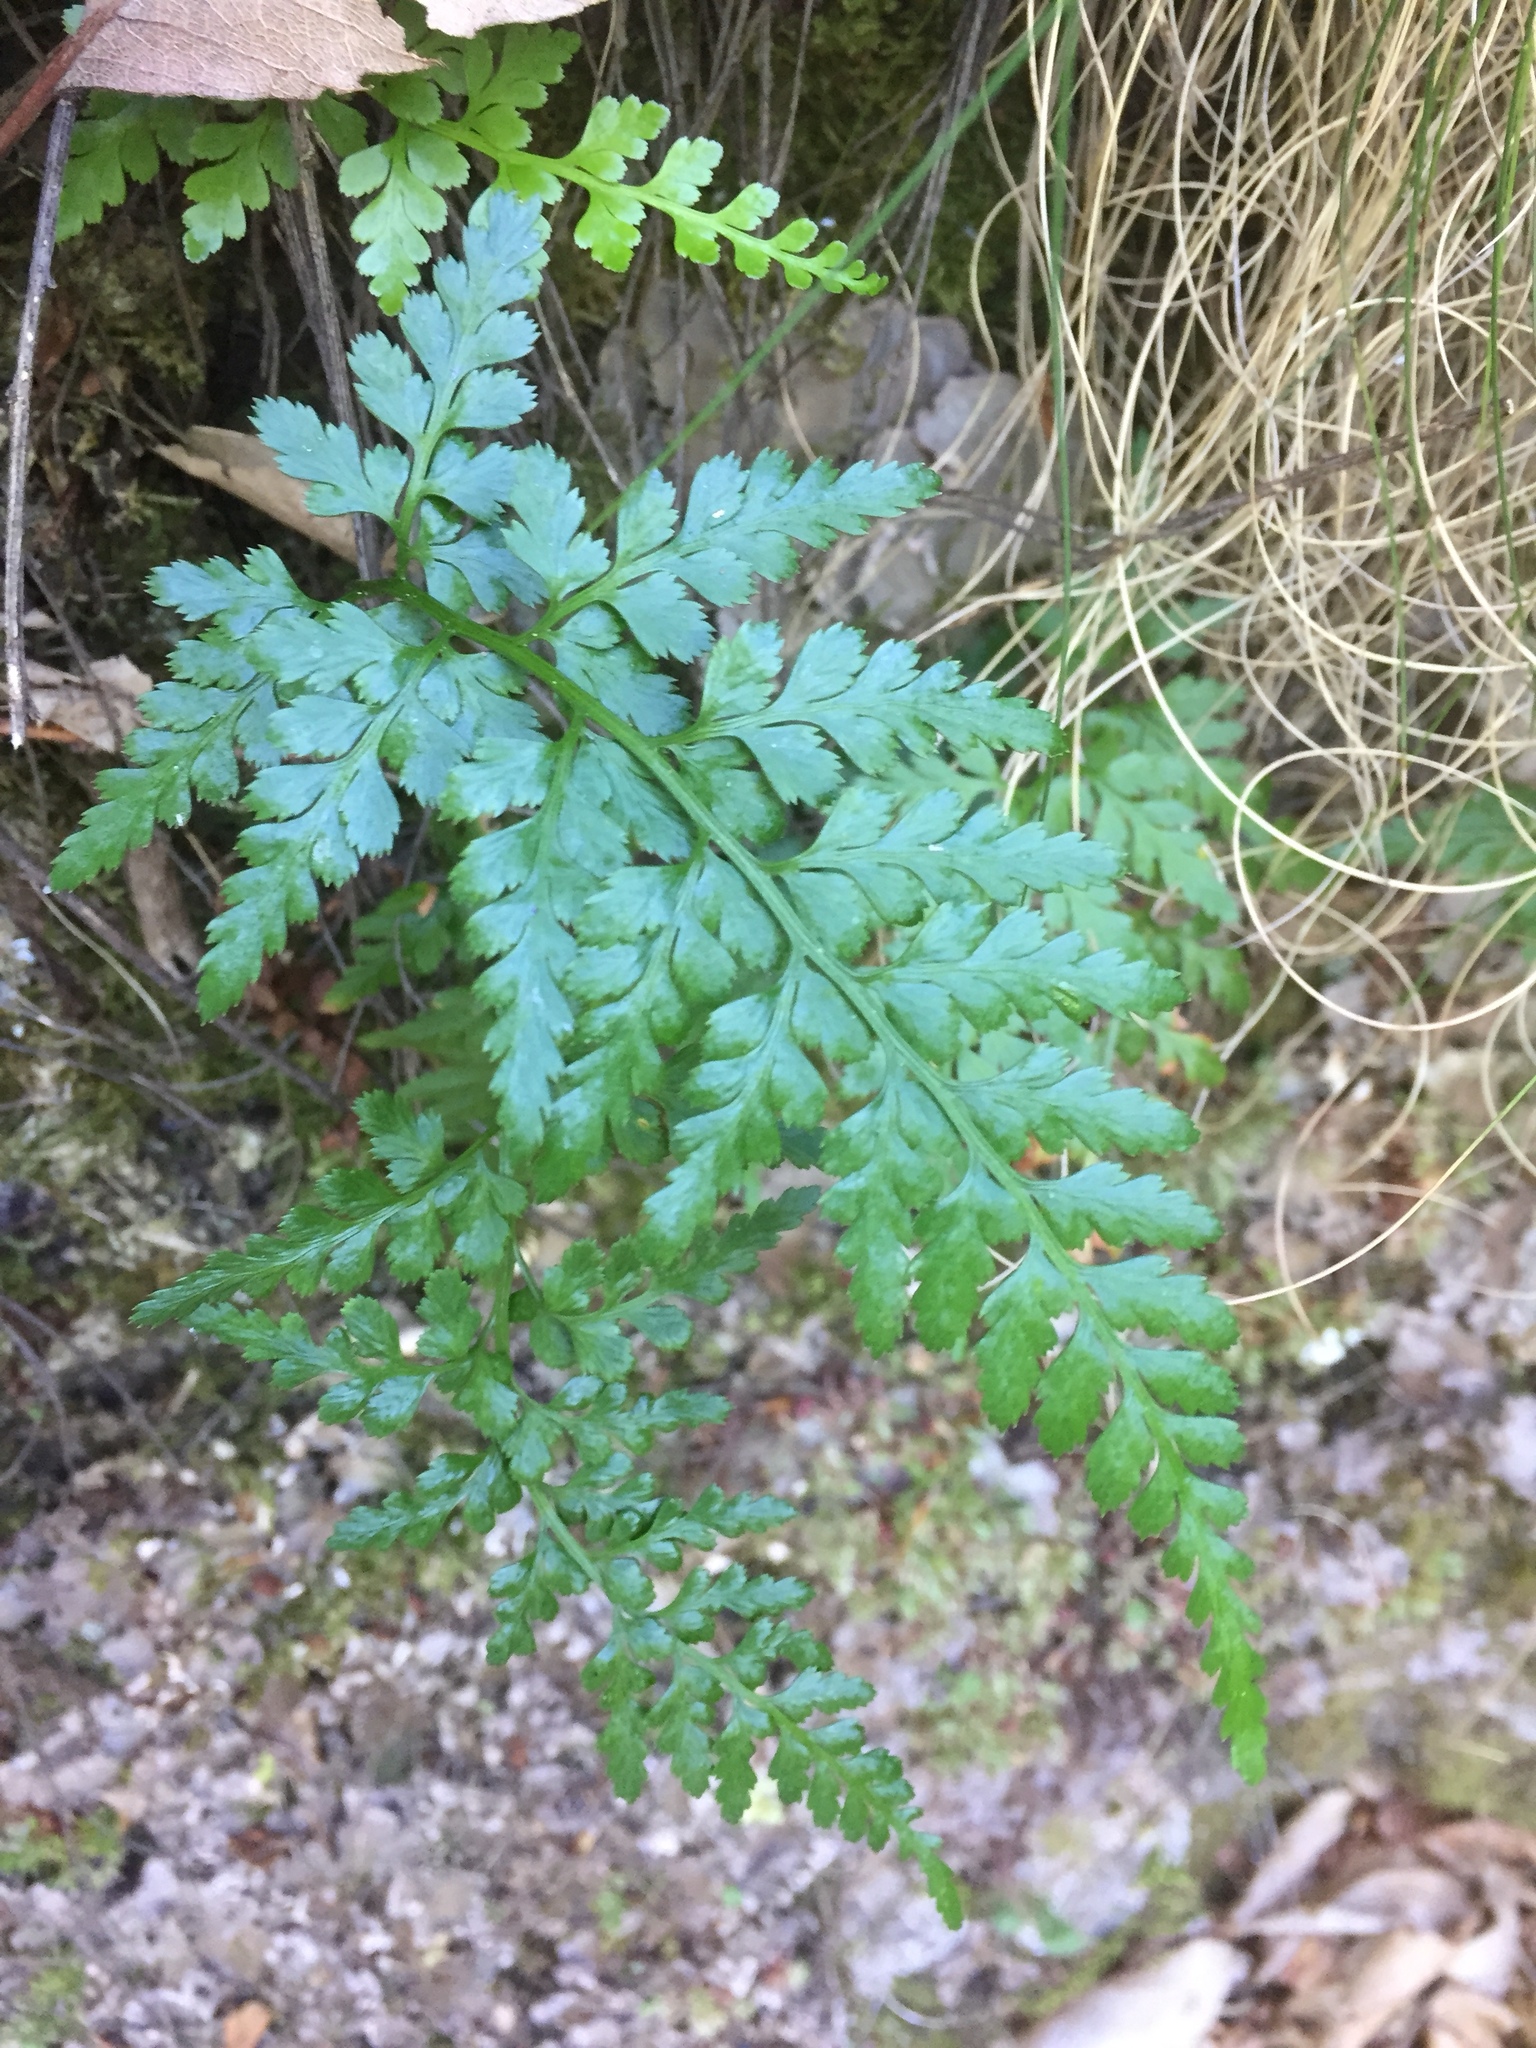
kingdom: Plantae
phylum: Tracheophyta
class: Polypodiopsida
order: Polypodiales
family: Aspleniaceae
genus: Asplenium
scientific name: Asplenium onopteris
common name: Irish spleenwort
